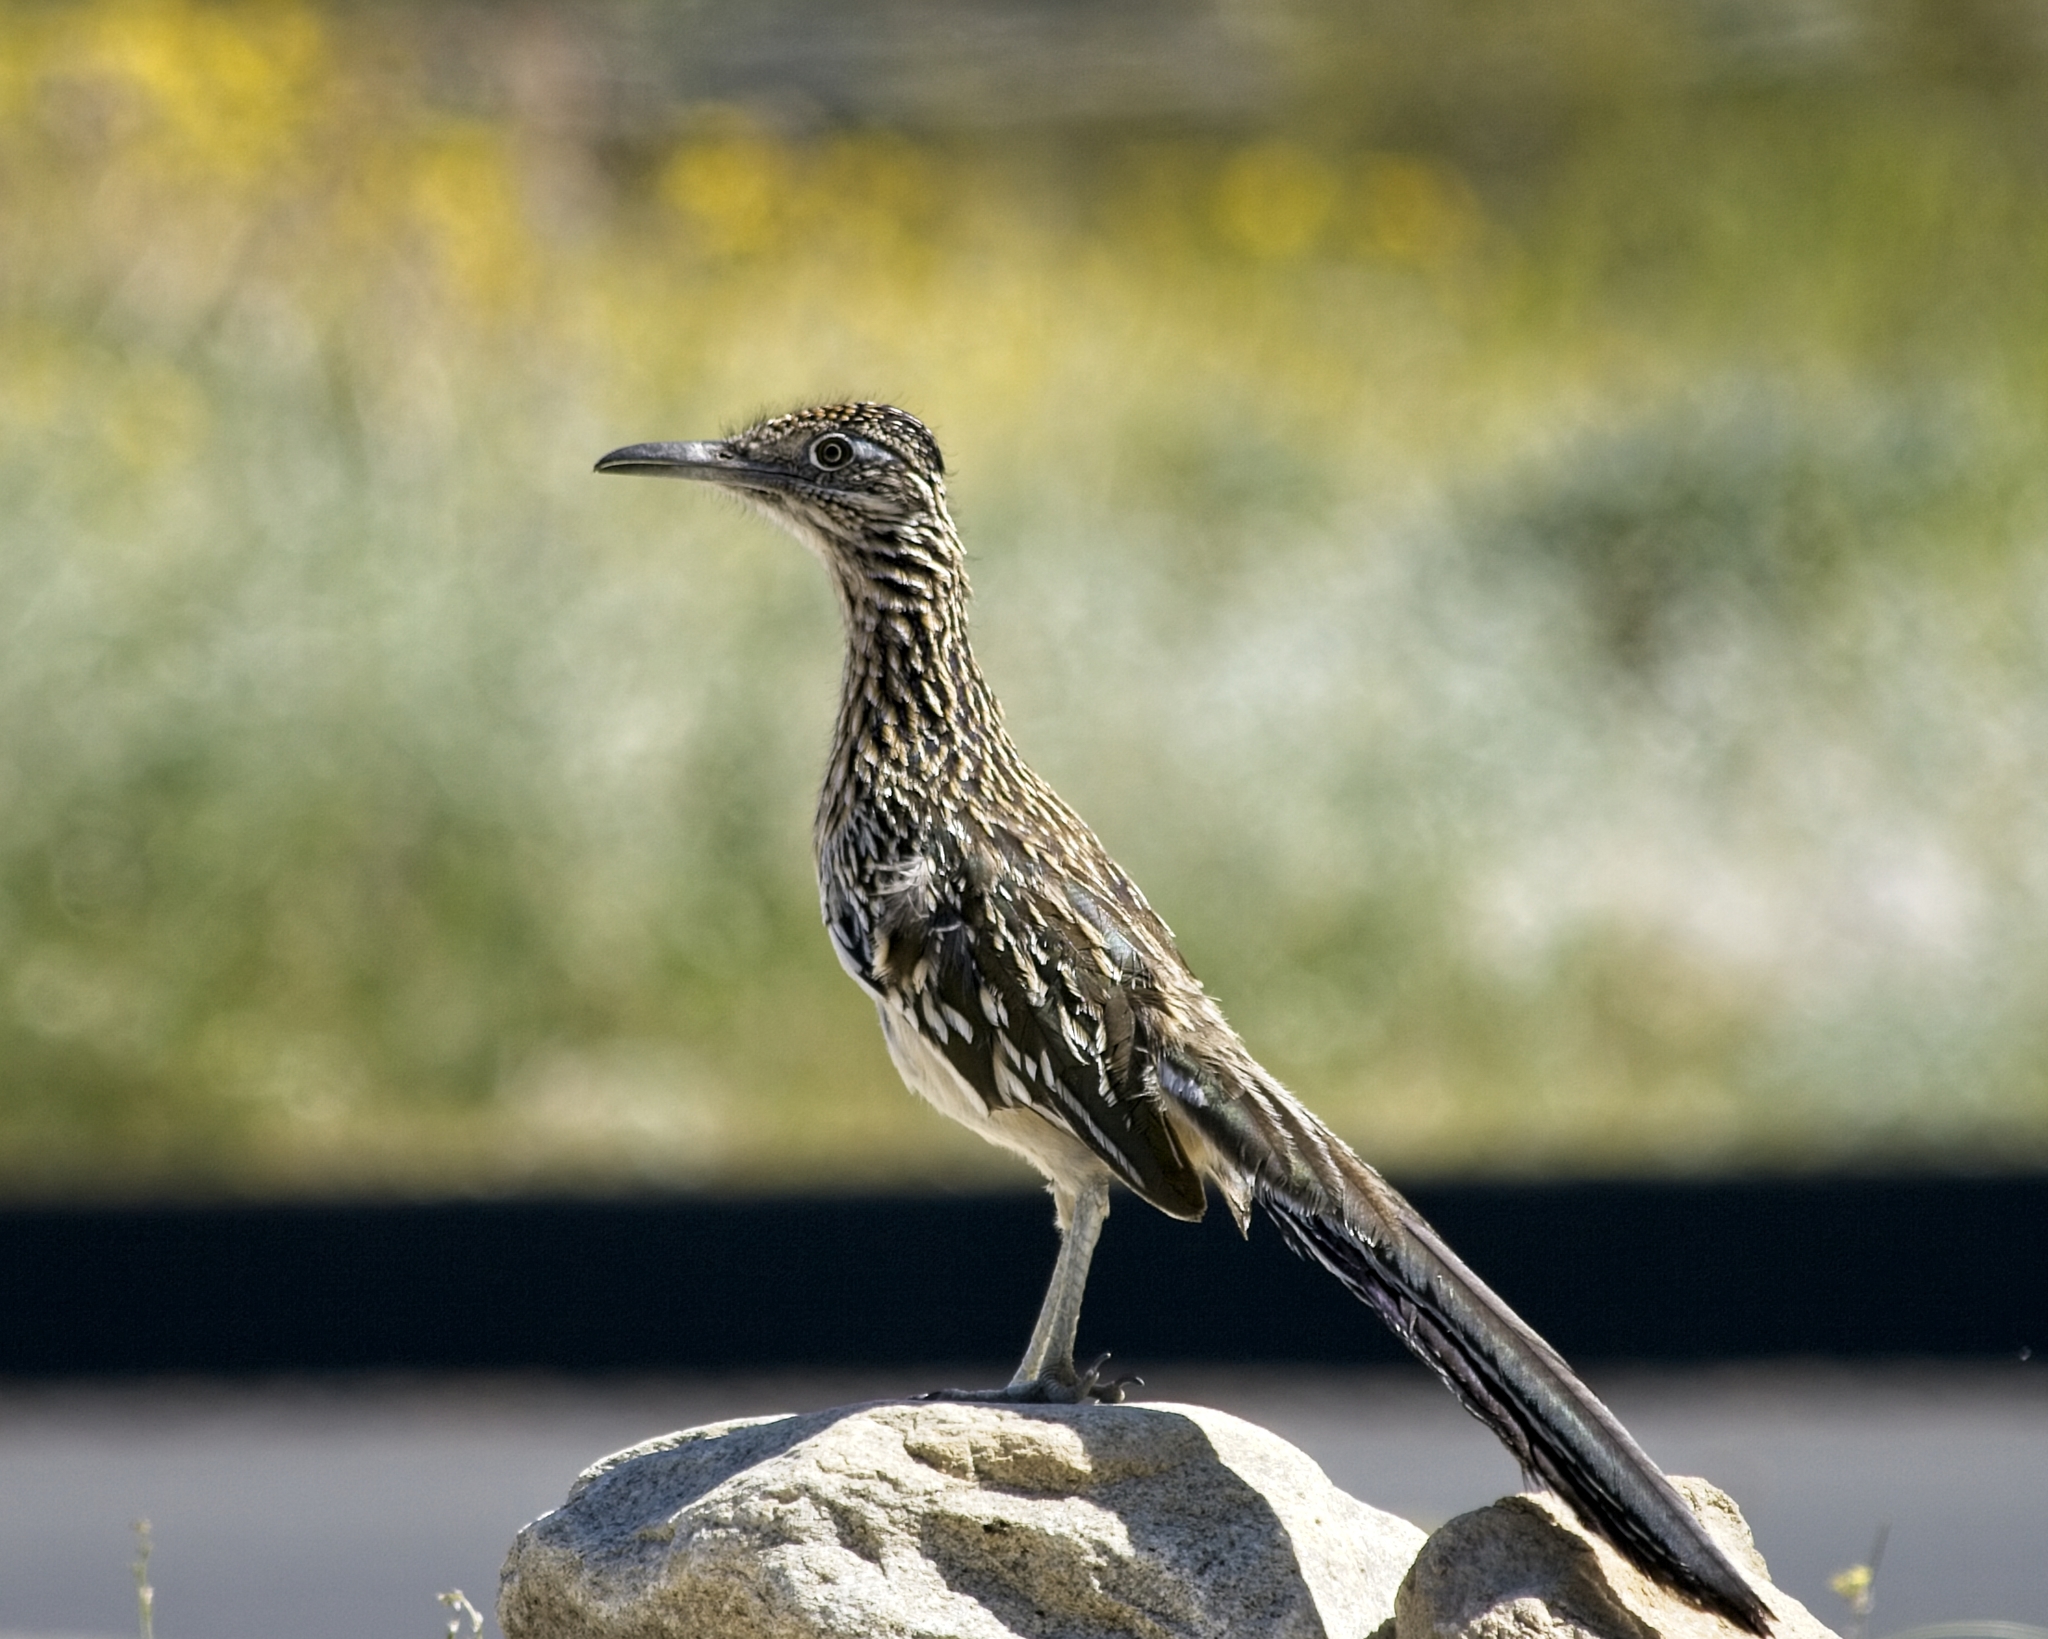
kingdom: Animalia
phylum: Chordata
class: Aves
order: Cuculiformes
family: Cuculidae
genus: Geococcyx
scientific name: Geococcyx californianus
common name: Greater roadrunner
